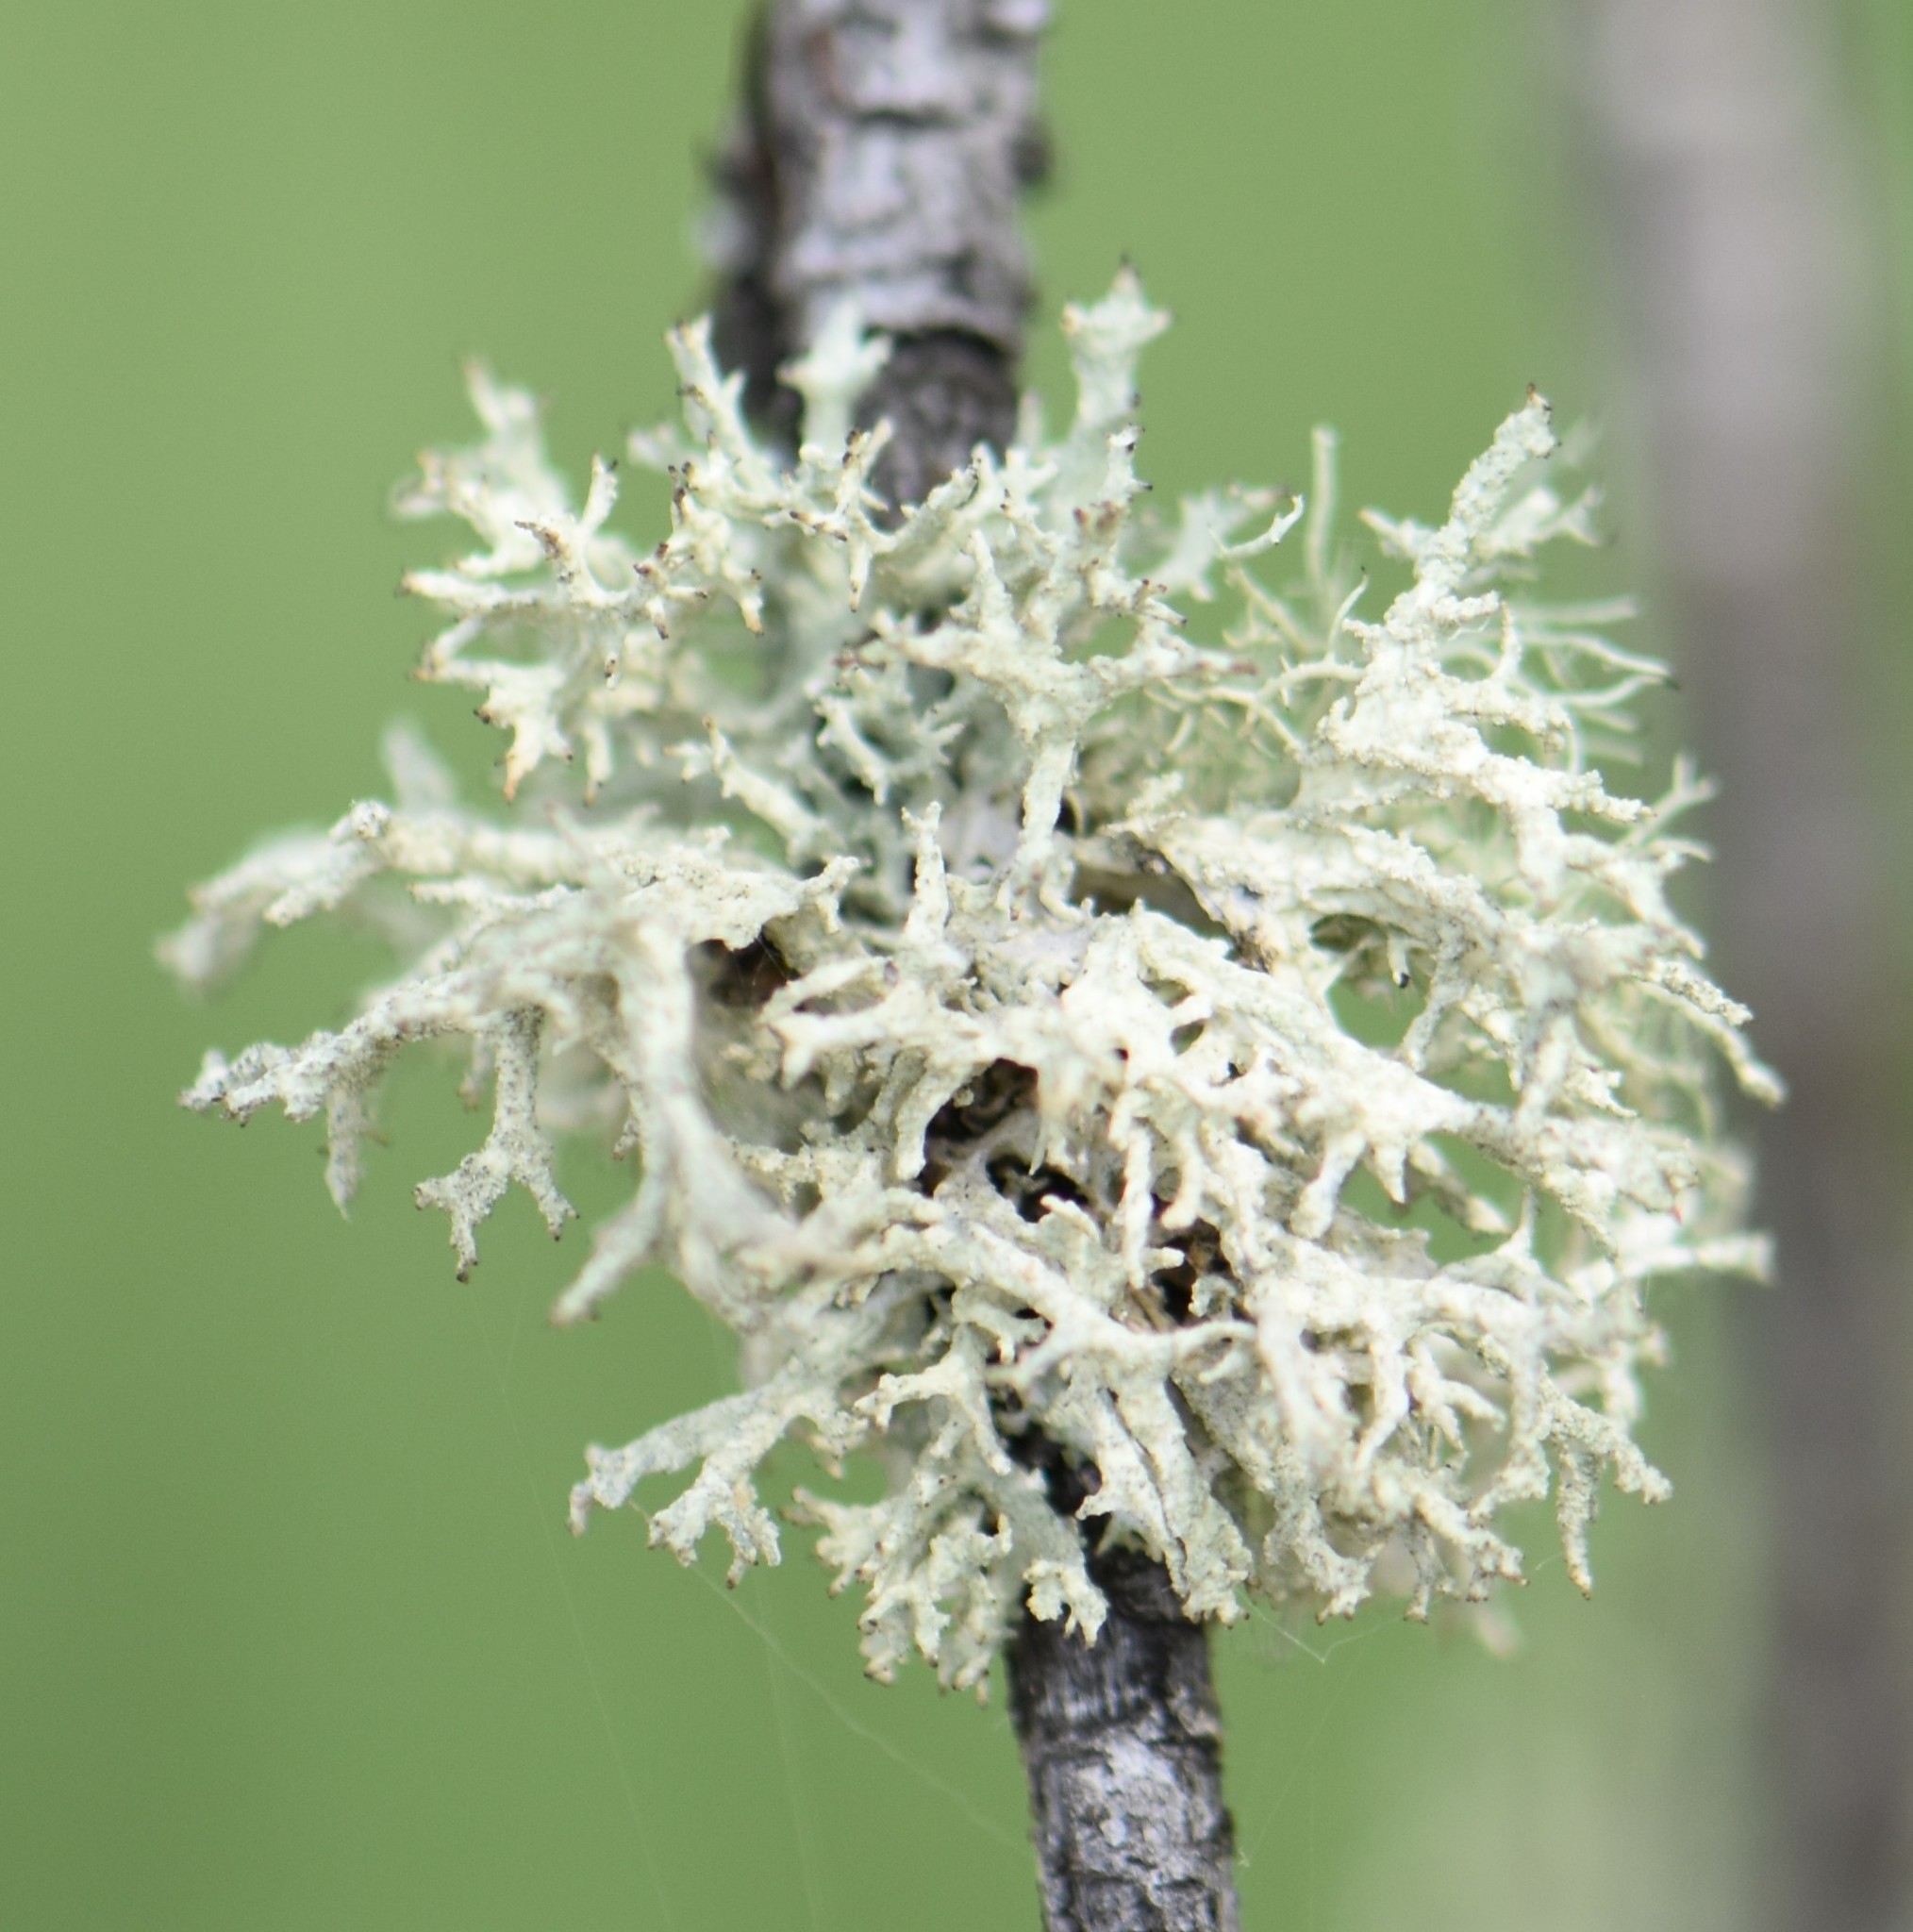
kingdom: Fungi
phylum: Ascomycota
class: Lecanoromycetes
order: Lecanorales
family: Parmeliaceae
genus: Evernia
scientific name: Evernia mesomorpha
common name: Boreal oak moss lichen
